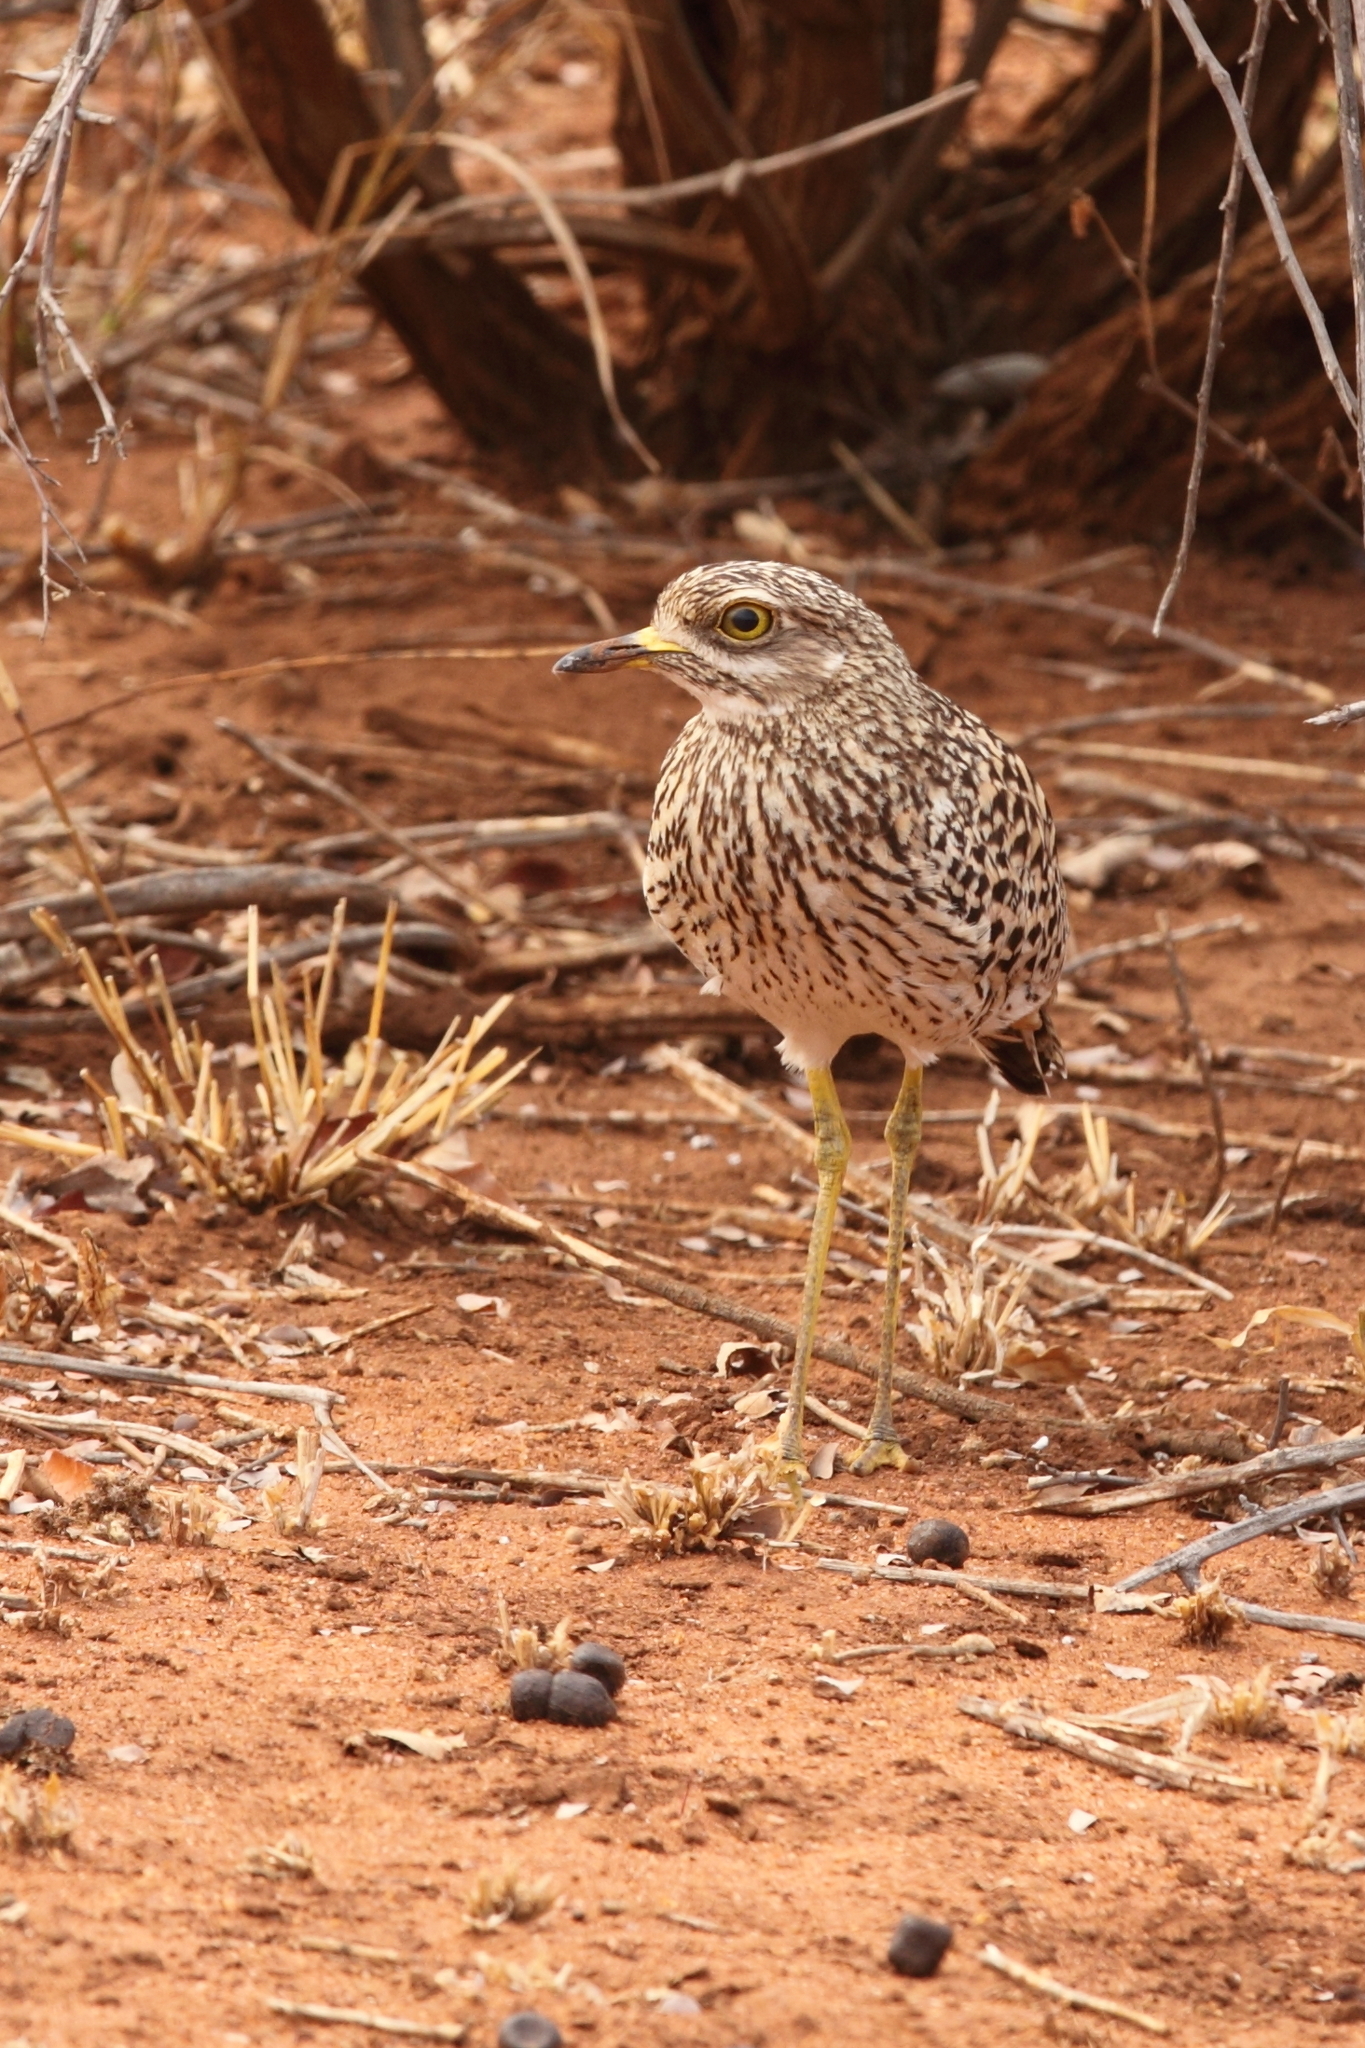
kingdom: Animalia
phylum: Chordata
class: Aves
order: Charadriiformes
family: Burhinidae
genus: Burhinus
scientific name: Burhinus capensis
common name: Spotted thick-knee
